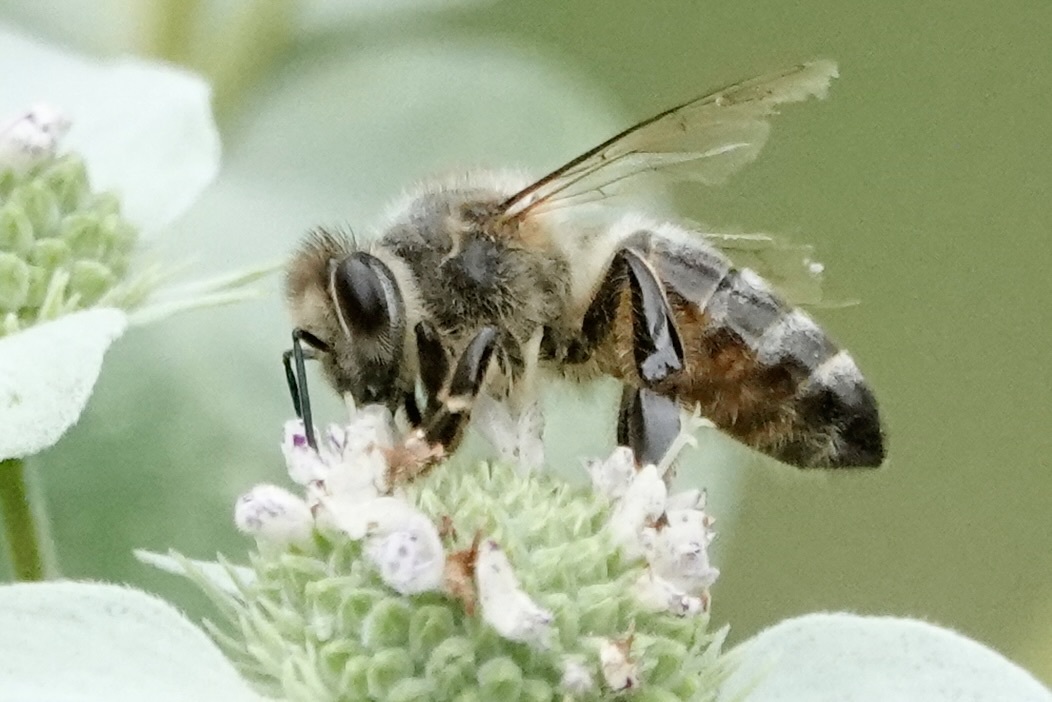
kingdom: Animalia
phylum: Arthropoda
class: Insecta
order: Hymenoptera
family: Apidae
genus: Apis
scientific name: Apis mellifera
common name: Honey bee
